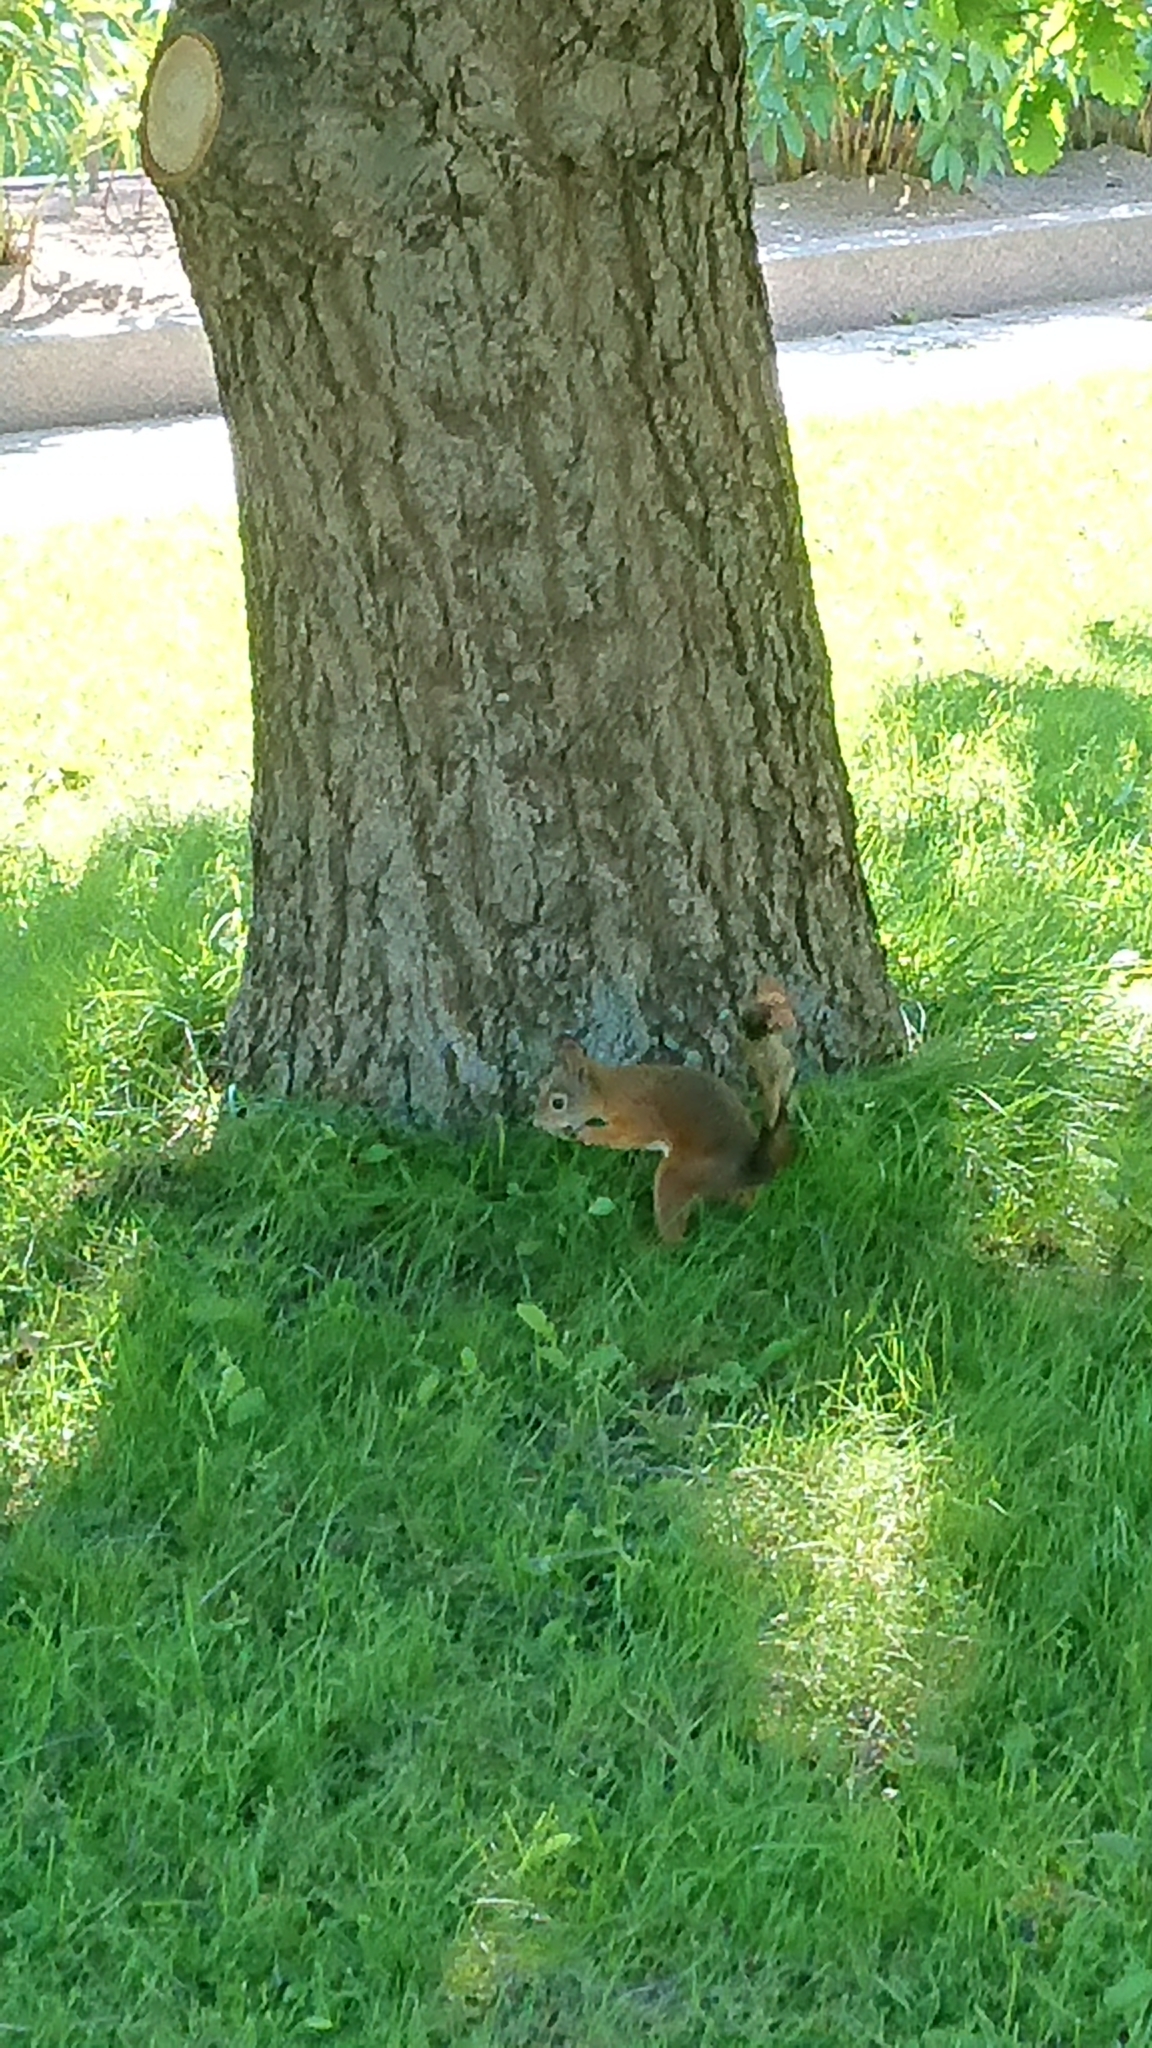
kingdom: Animalia
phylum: Chordata
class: Mammalia
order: Rodentia
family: Sciuridae
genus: Sciurus
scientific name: Sciurus vulgaris
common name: Eurasian red squirrel
